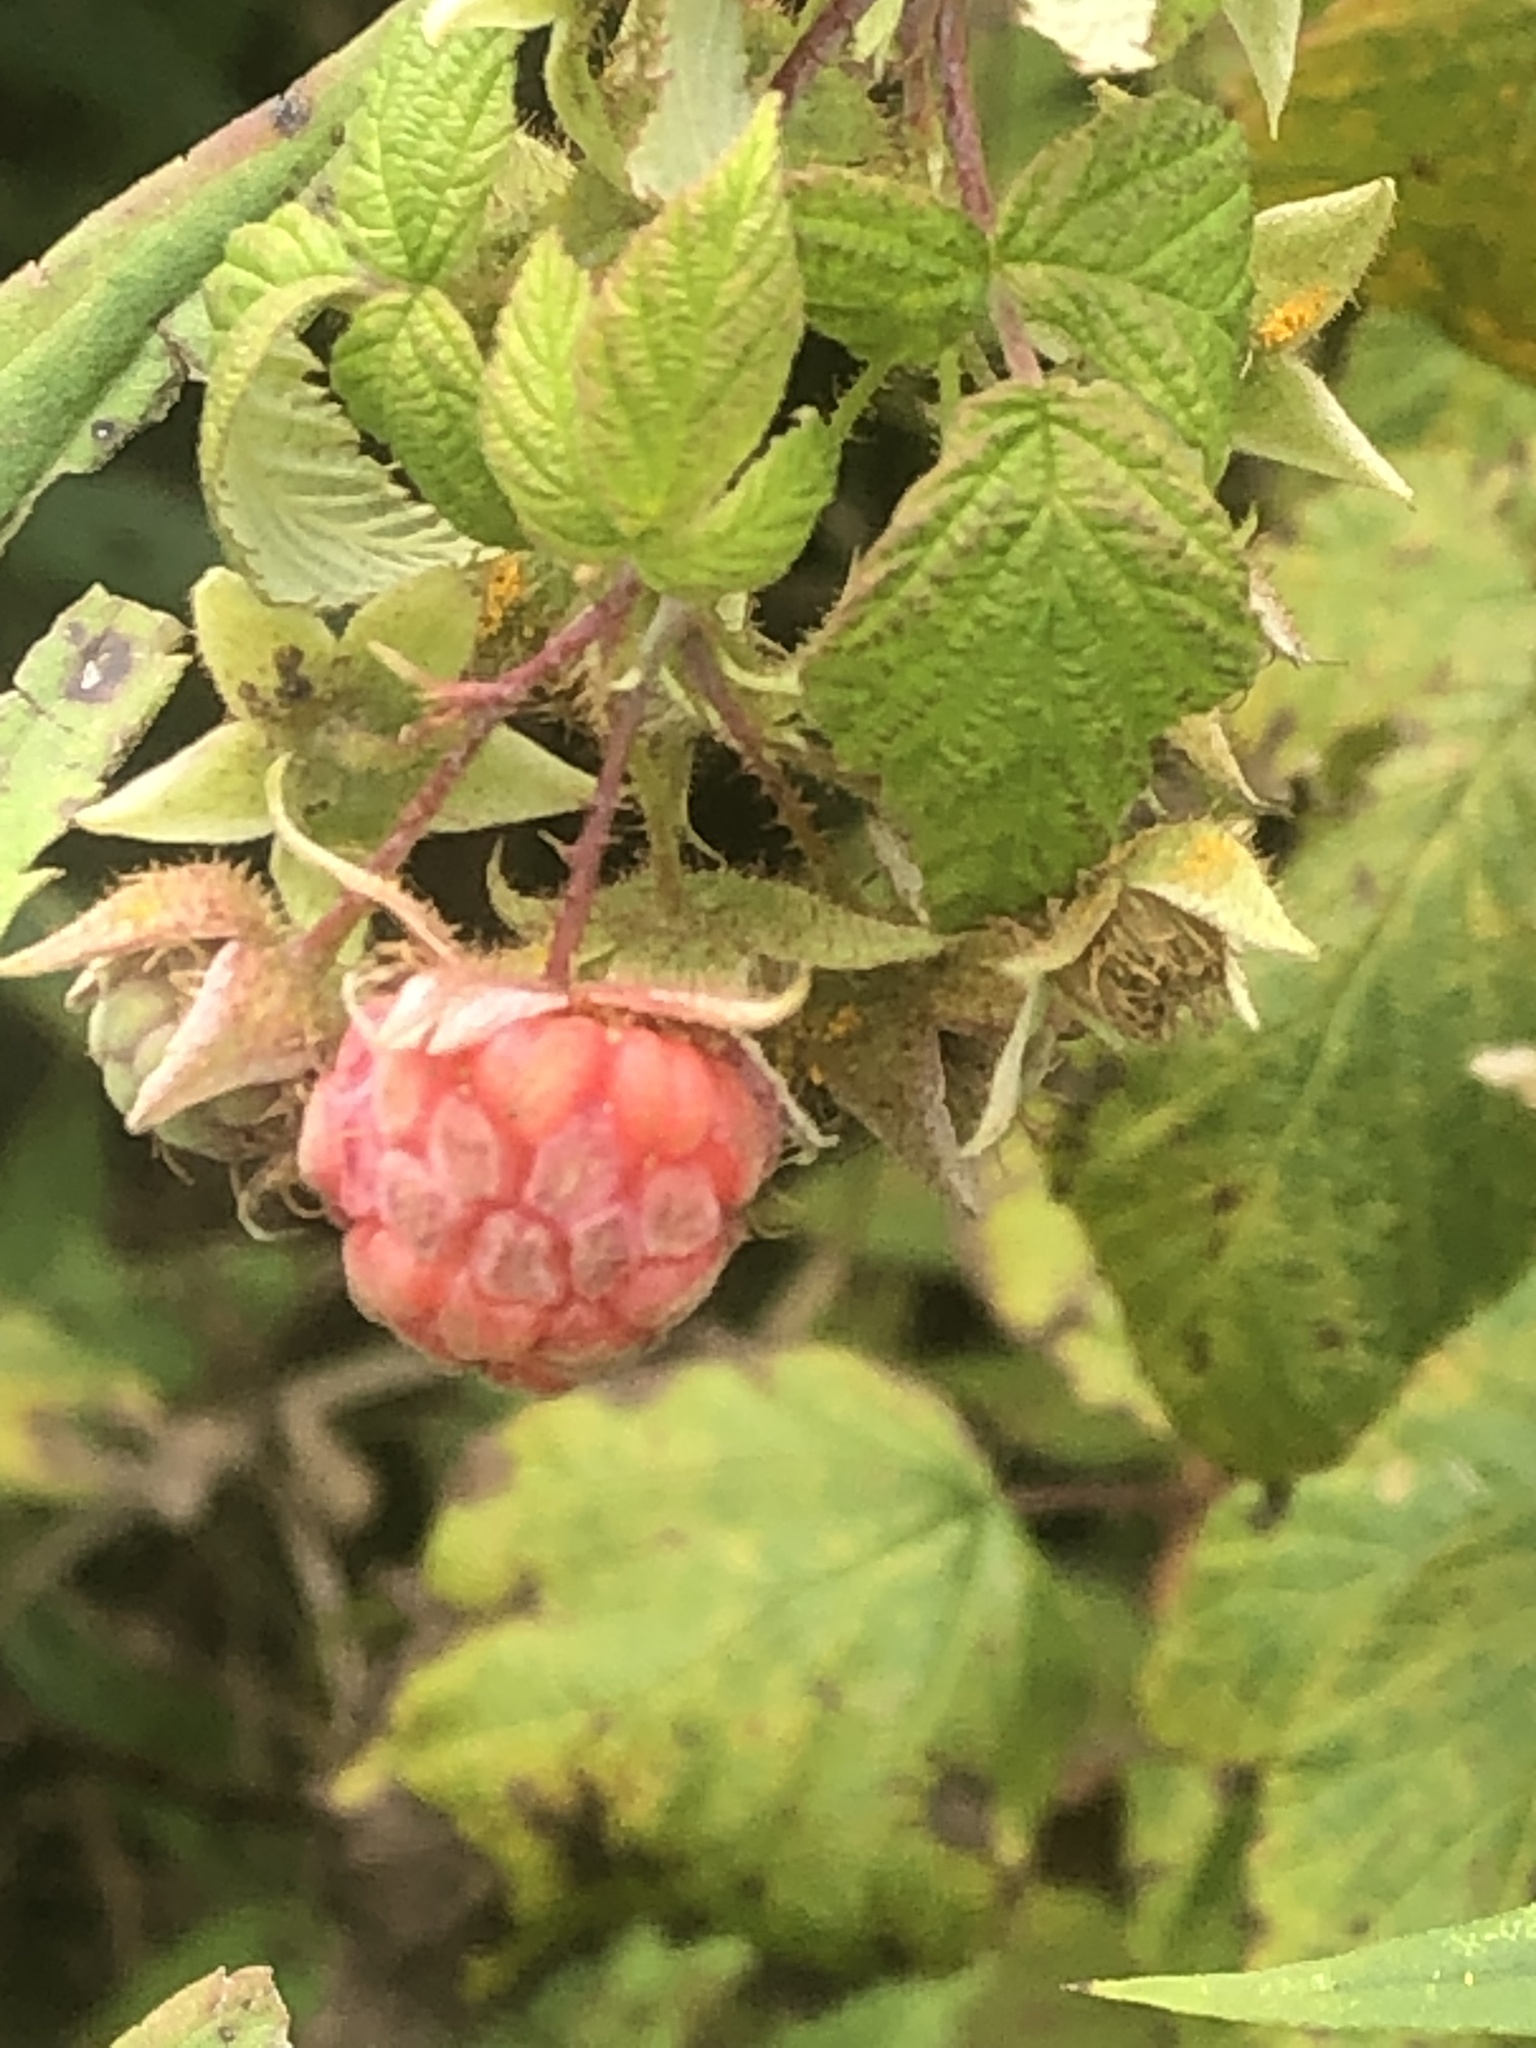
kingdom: Plantae
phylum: Tracheophyta
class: Magnoliopsida
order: Rosales
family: Rosaceae
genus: Rubus
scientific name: Rubus idaeus
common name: Raspberry
